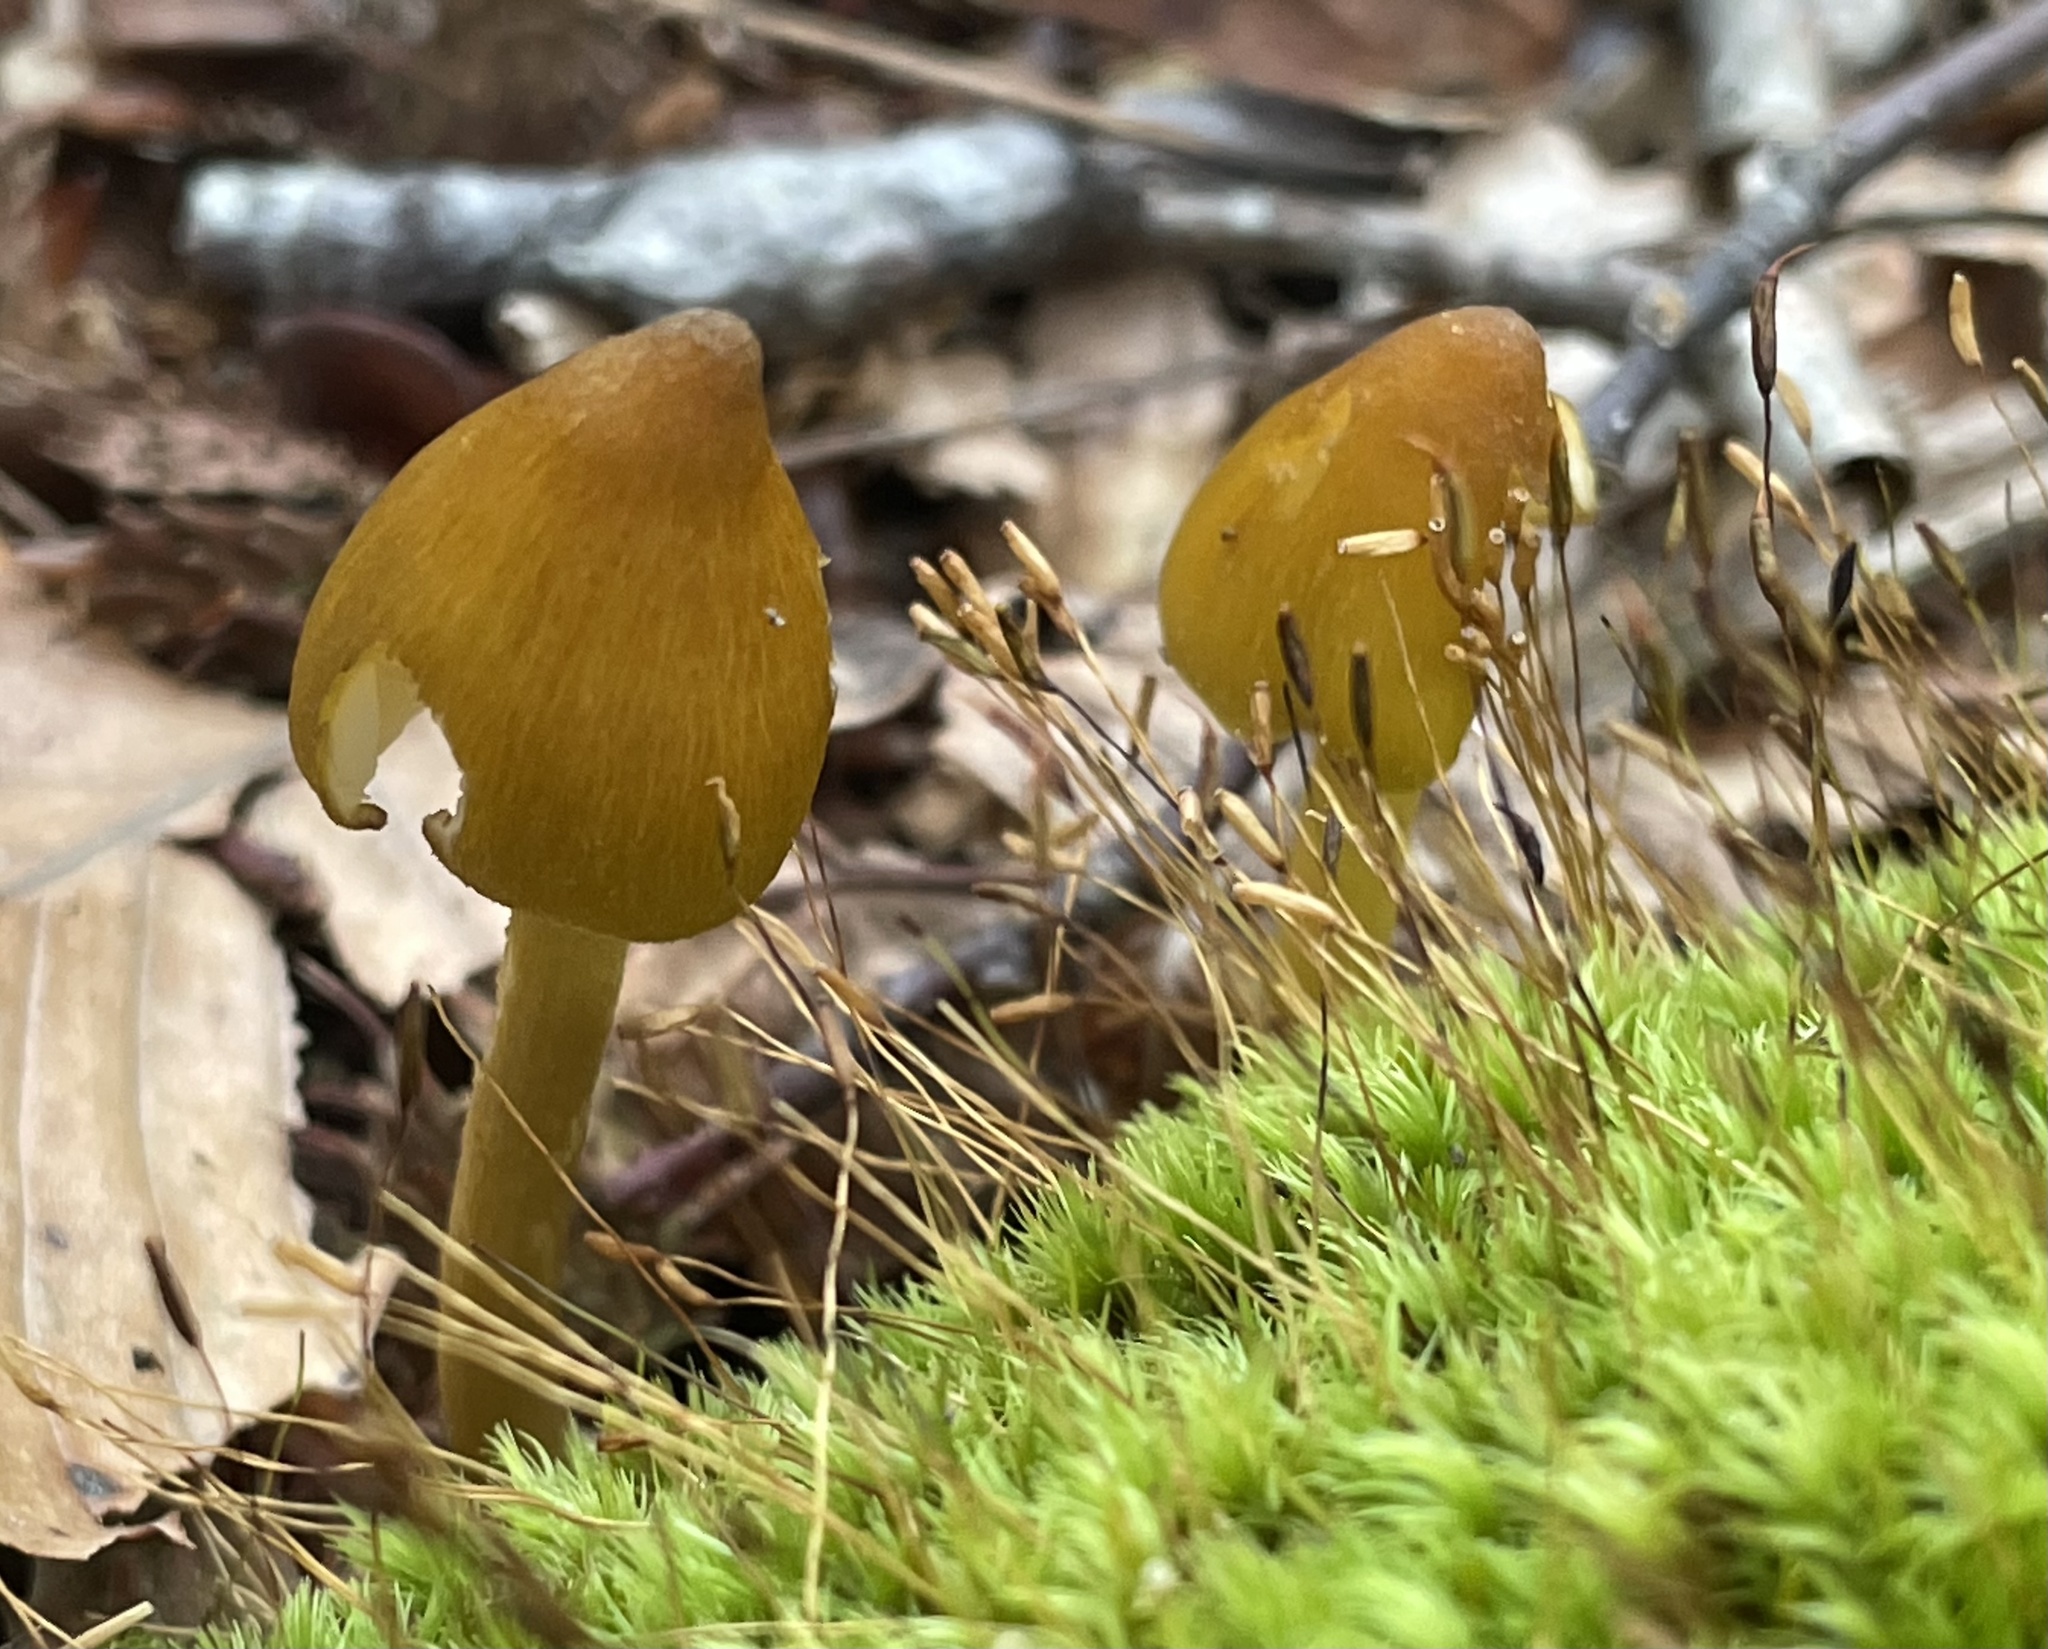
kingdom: Fungi
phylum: Basidiomycota
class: Agaricomycetes
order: Agaricales
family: Entolomataceae
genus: Entoloma
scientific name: Entoloma luteum
